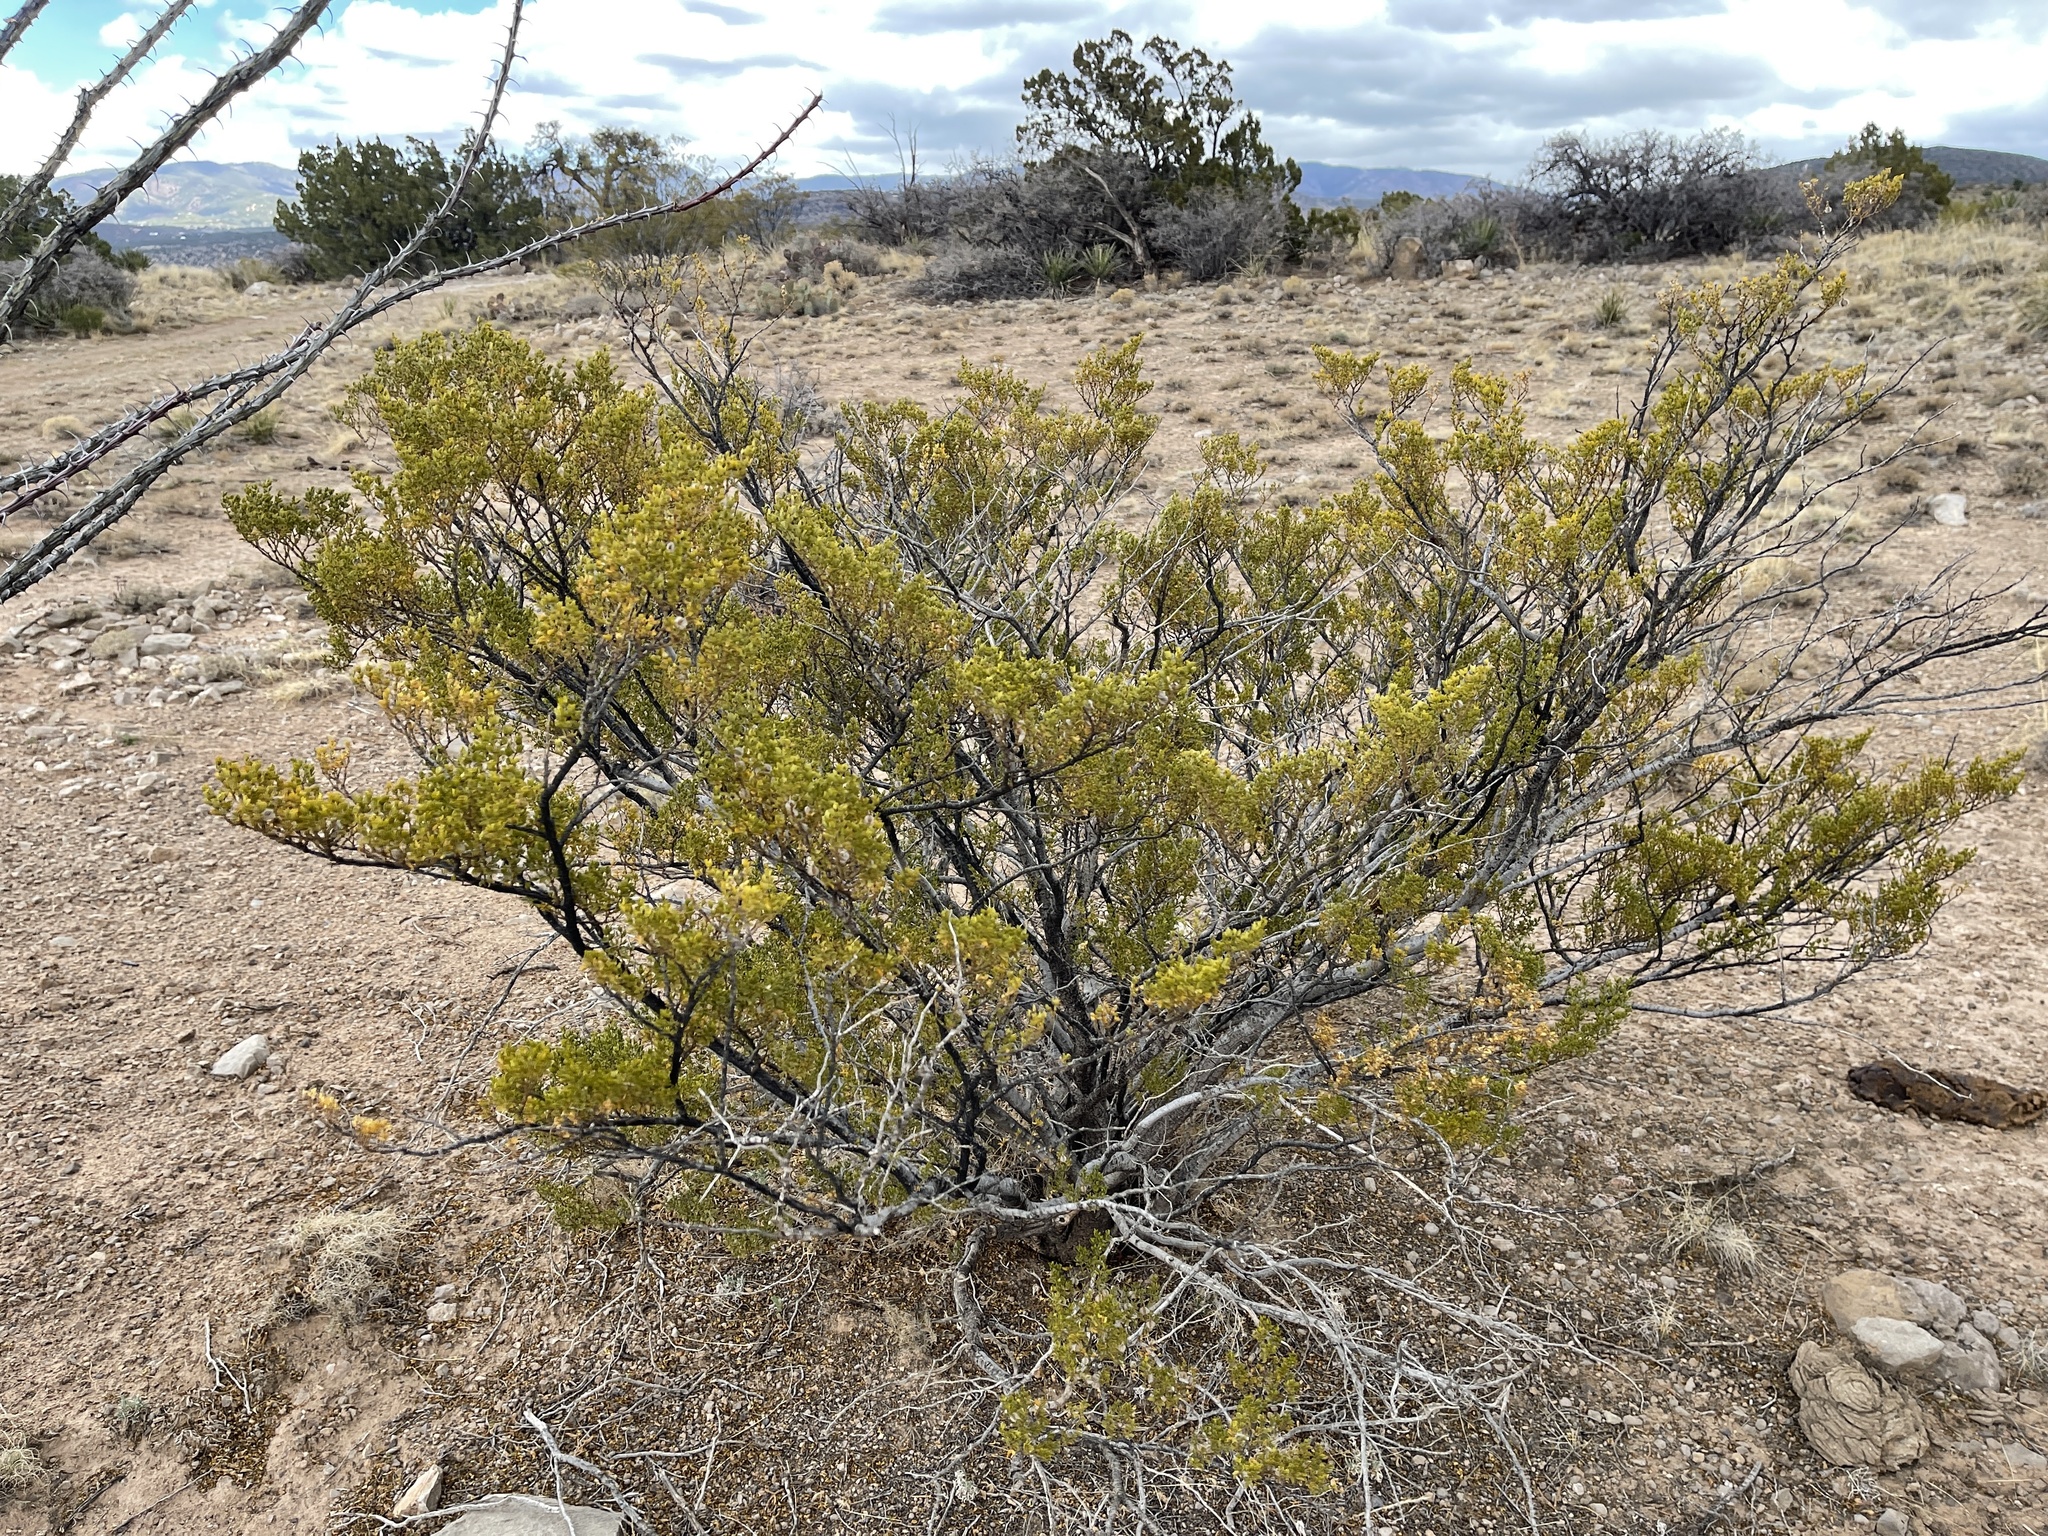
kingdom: Plantae
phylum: Tracheophyta
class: Magnoliopsida
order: Zygophyllales
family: Zygophyllaceae
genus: Larrea
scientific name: Larrea tridentata
